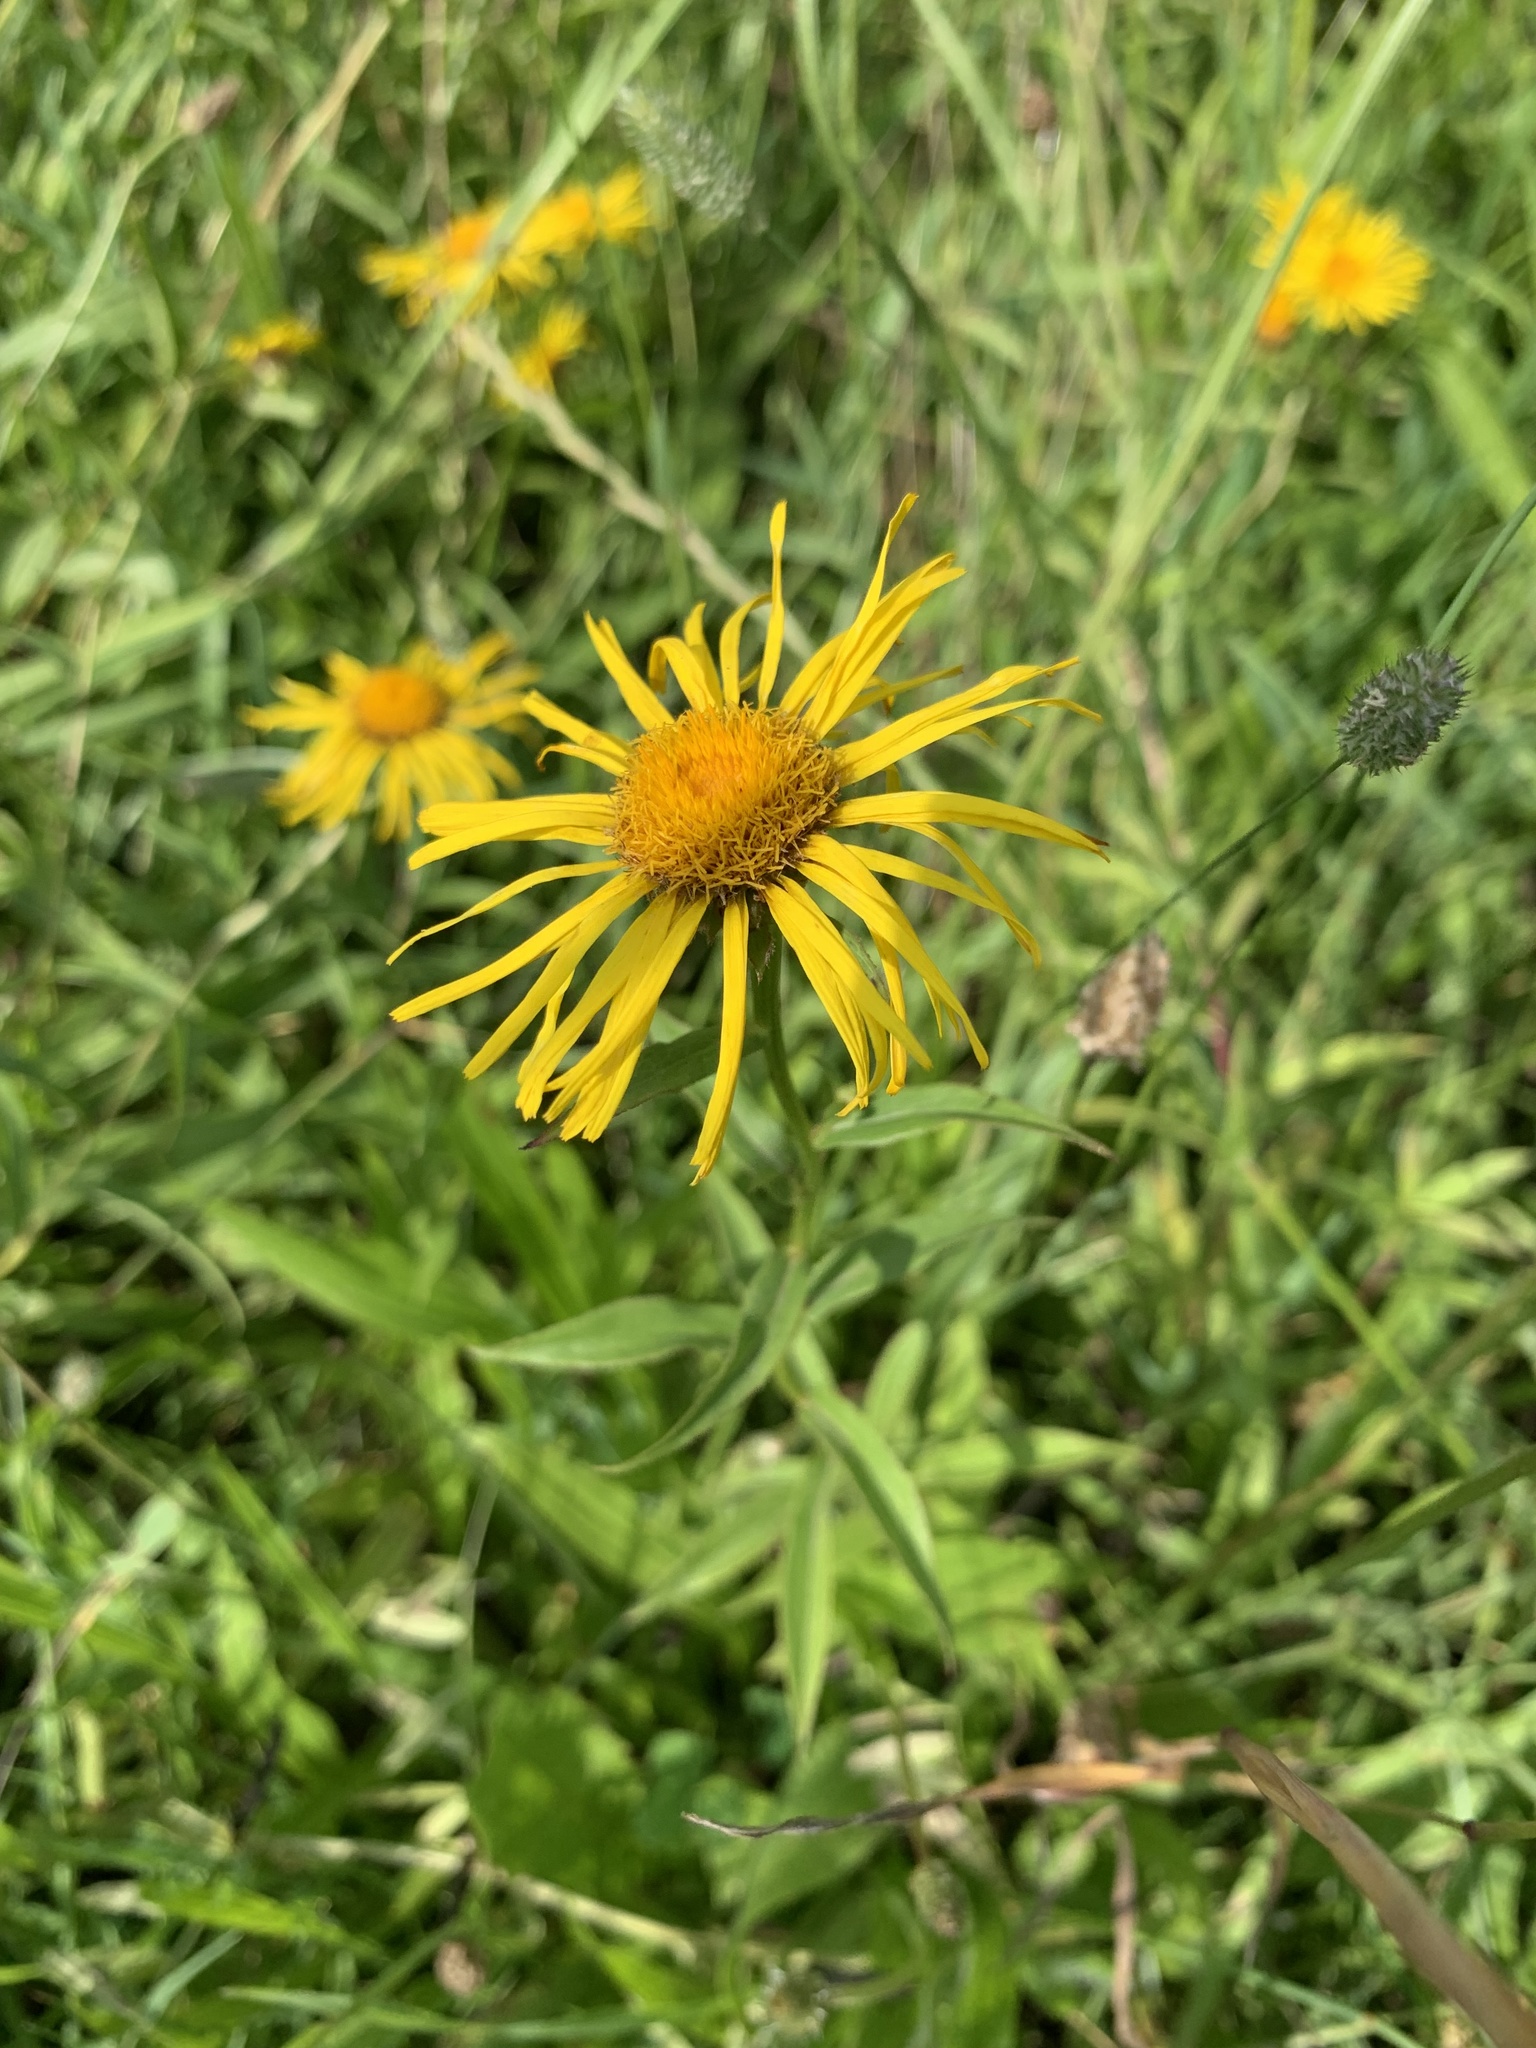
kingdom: Plantae
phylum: Tracheophyta
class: Magnoliopsida
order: Asterales
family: Asteraceae
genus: Pentanema
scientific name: Pentanema salicinum
